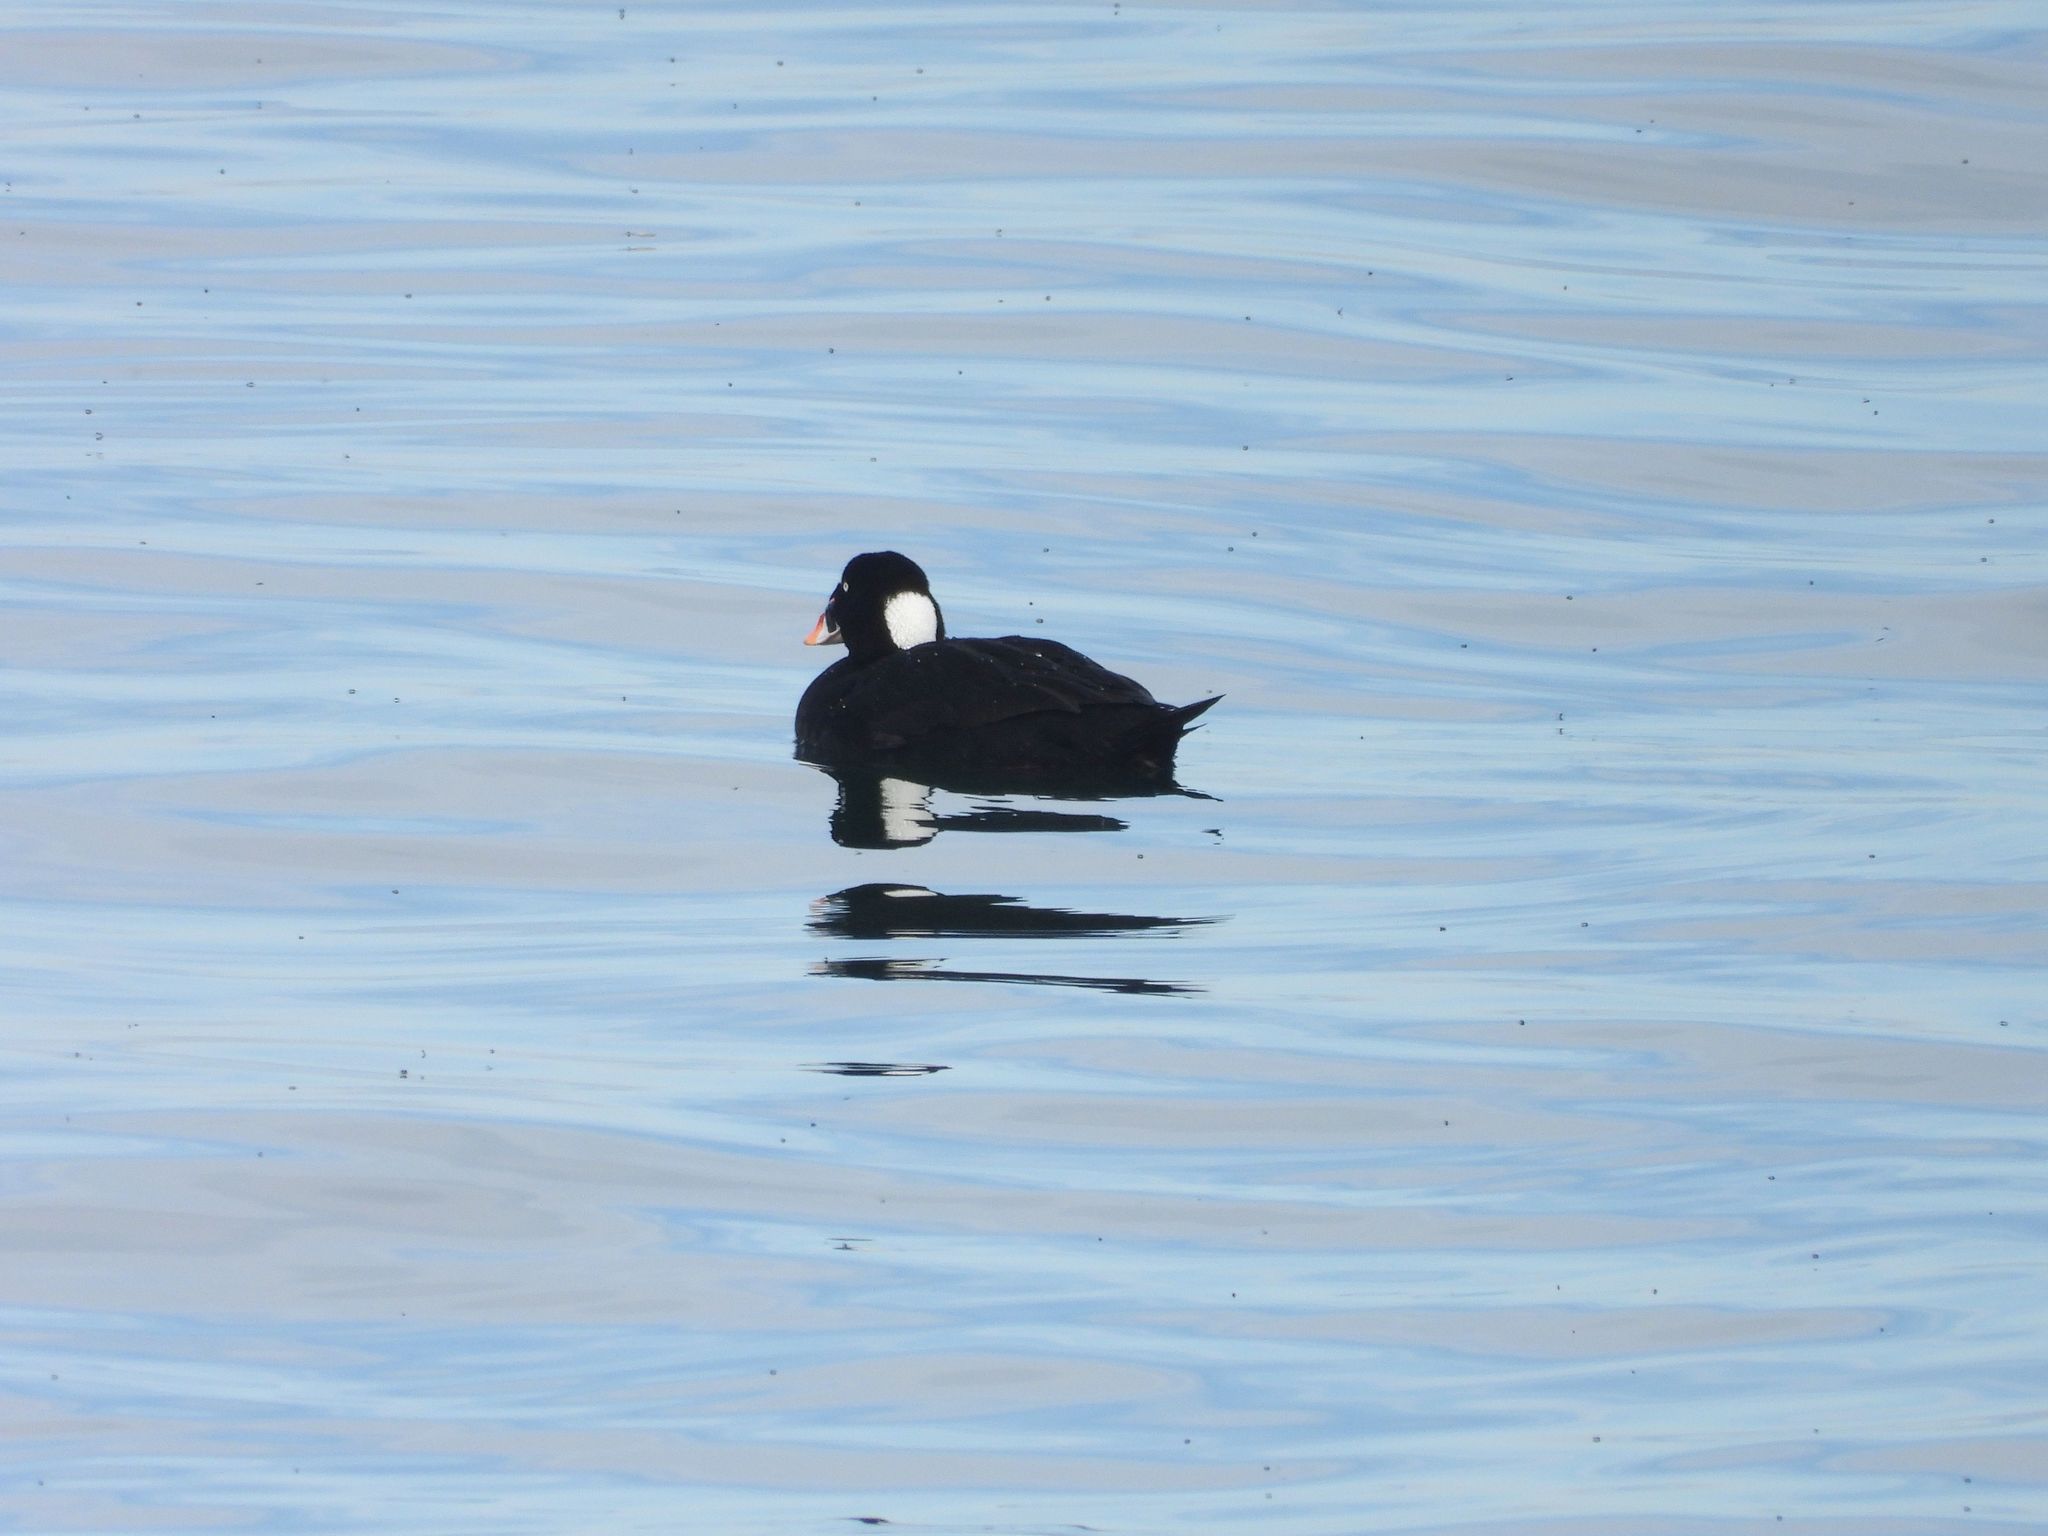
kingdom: Animalia
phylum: Chordata
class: Aves
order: Anseriformes
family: Anatidae
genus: Melanitta
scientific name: Melanitta perspicillata
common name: Surf scoter
